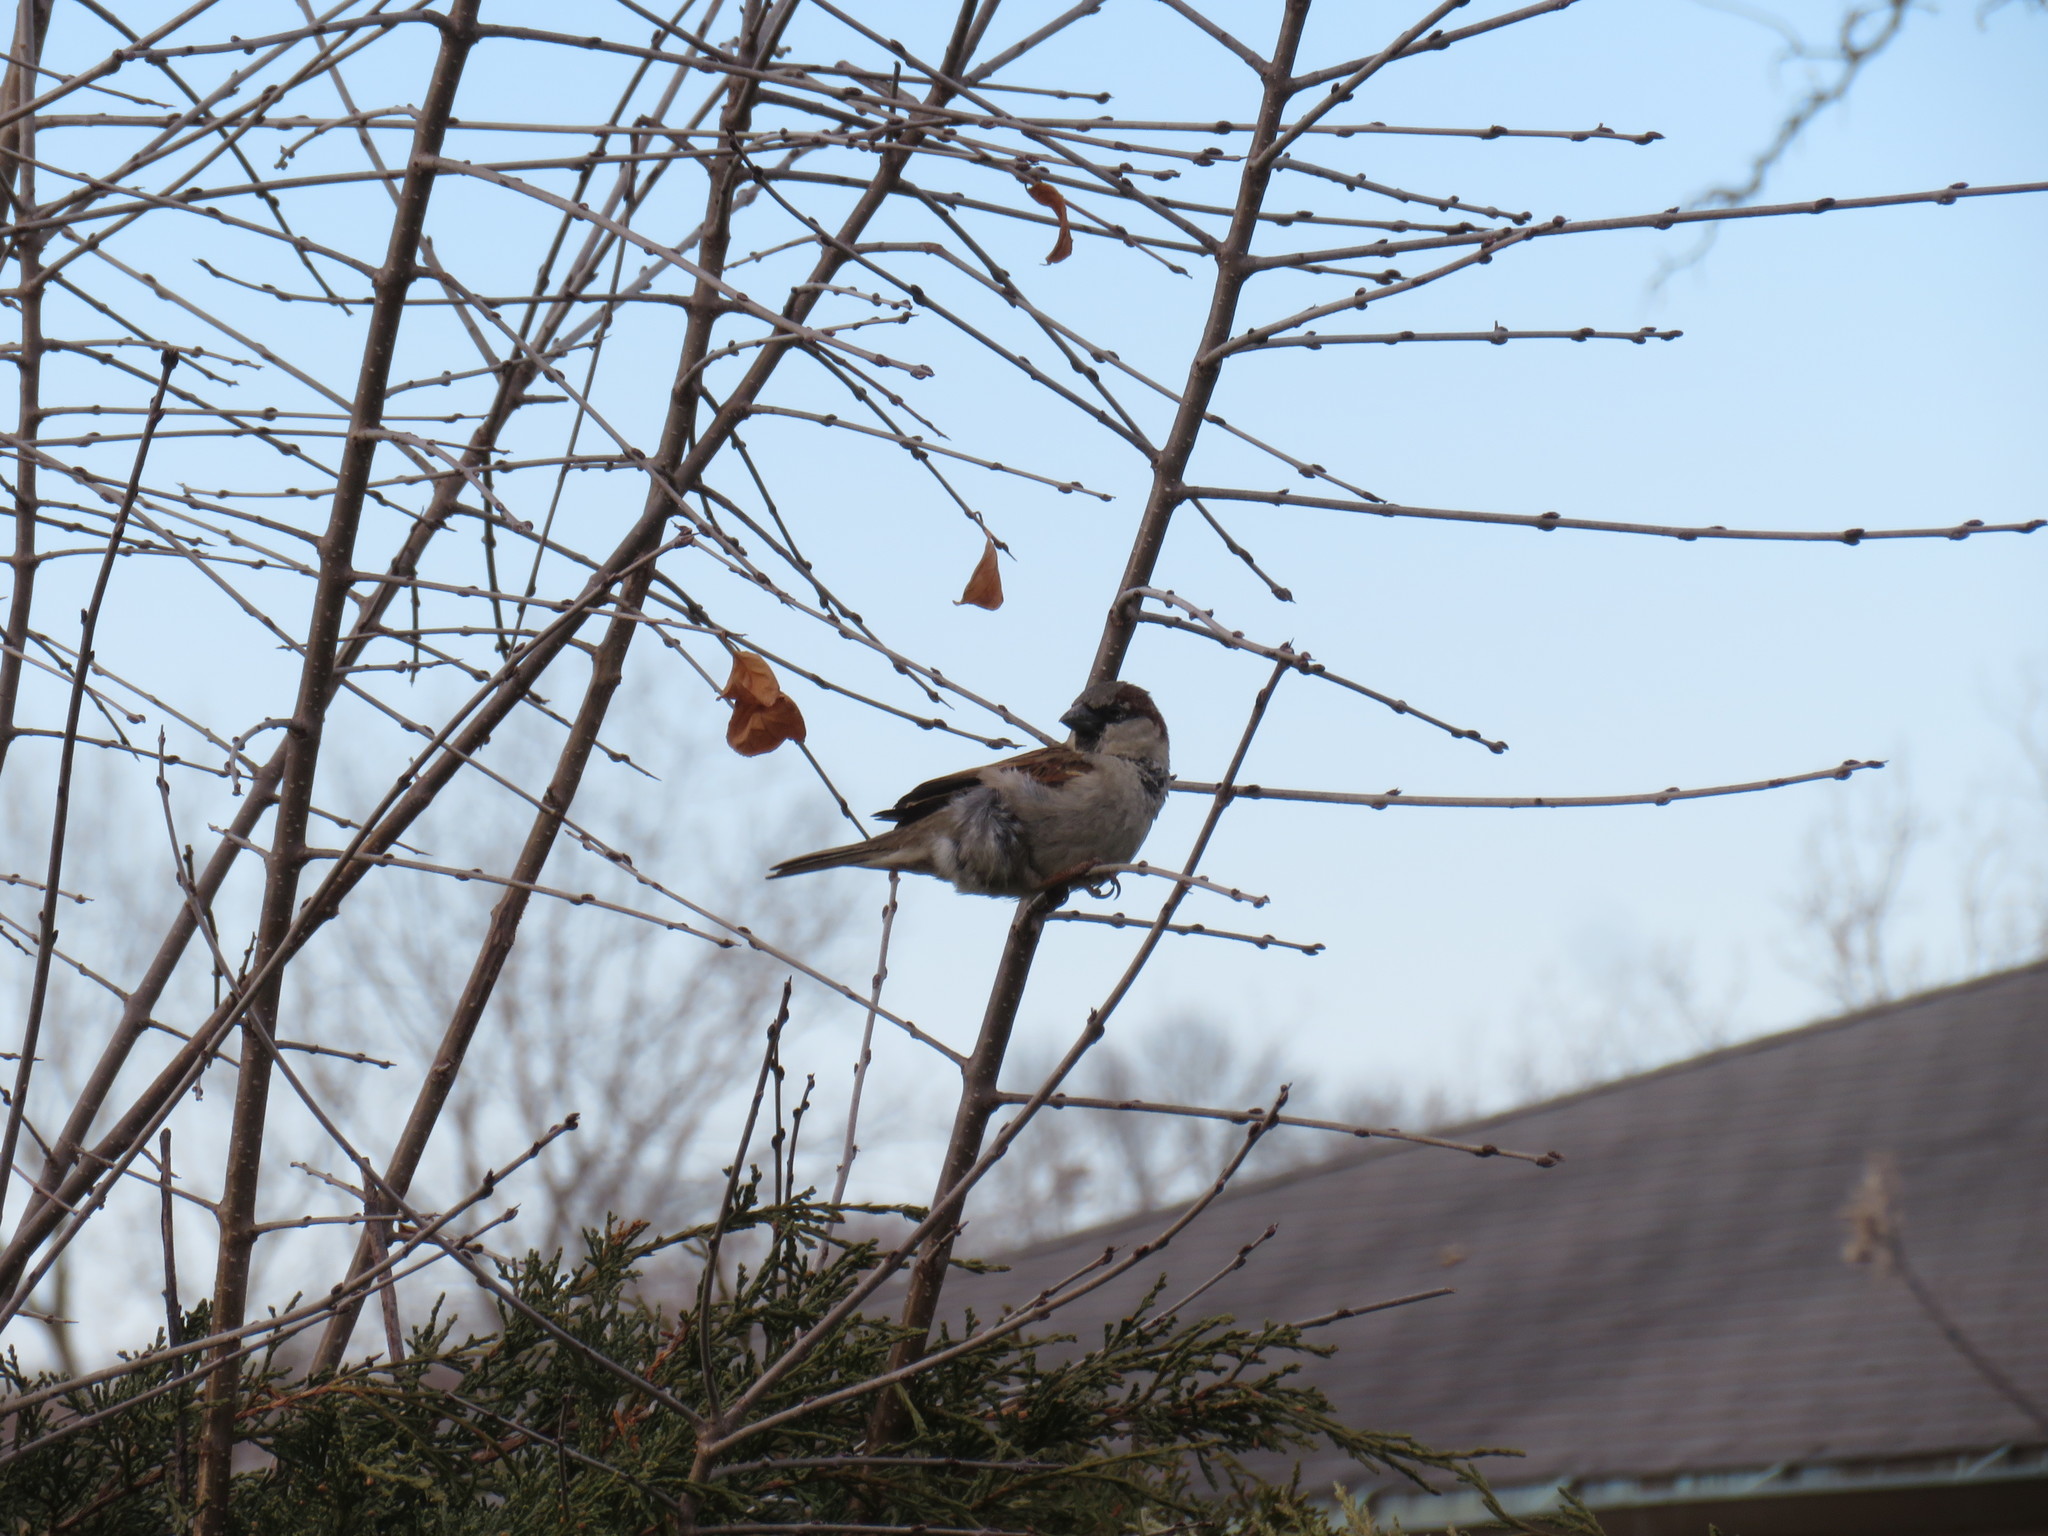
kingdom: Animalia
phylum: Chordata
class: Aves
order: Passeriformes
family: Passeridae
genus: Passer
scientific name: Passer domesticus
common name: House sparrow
